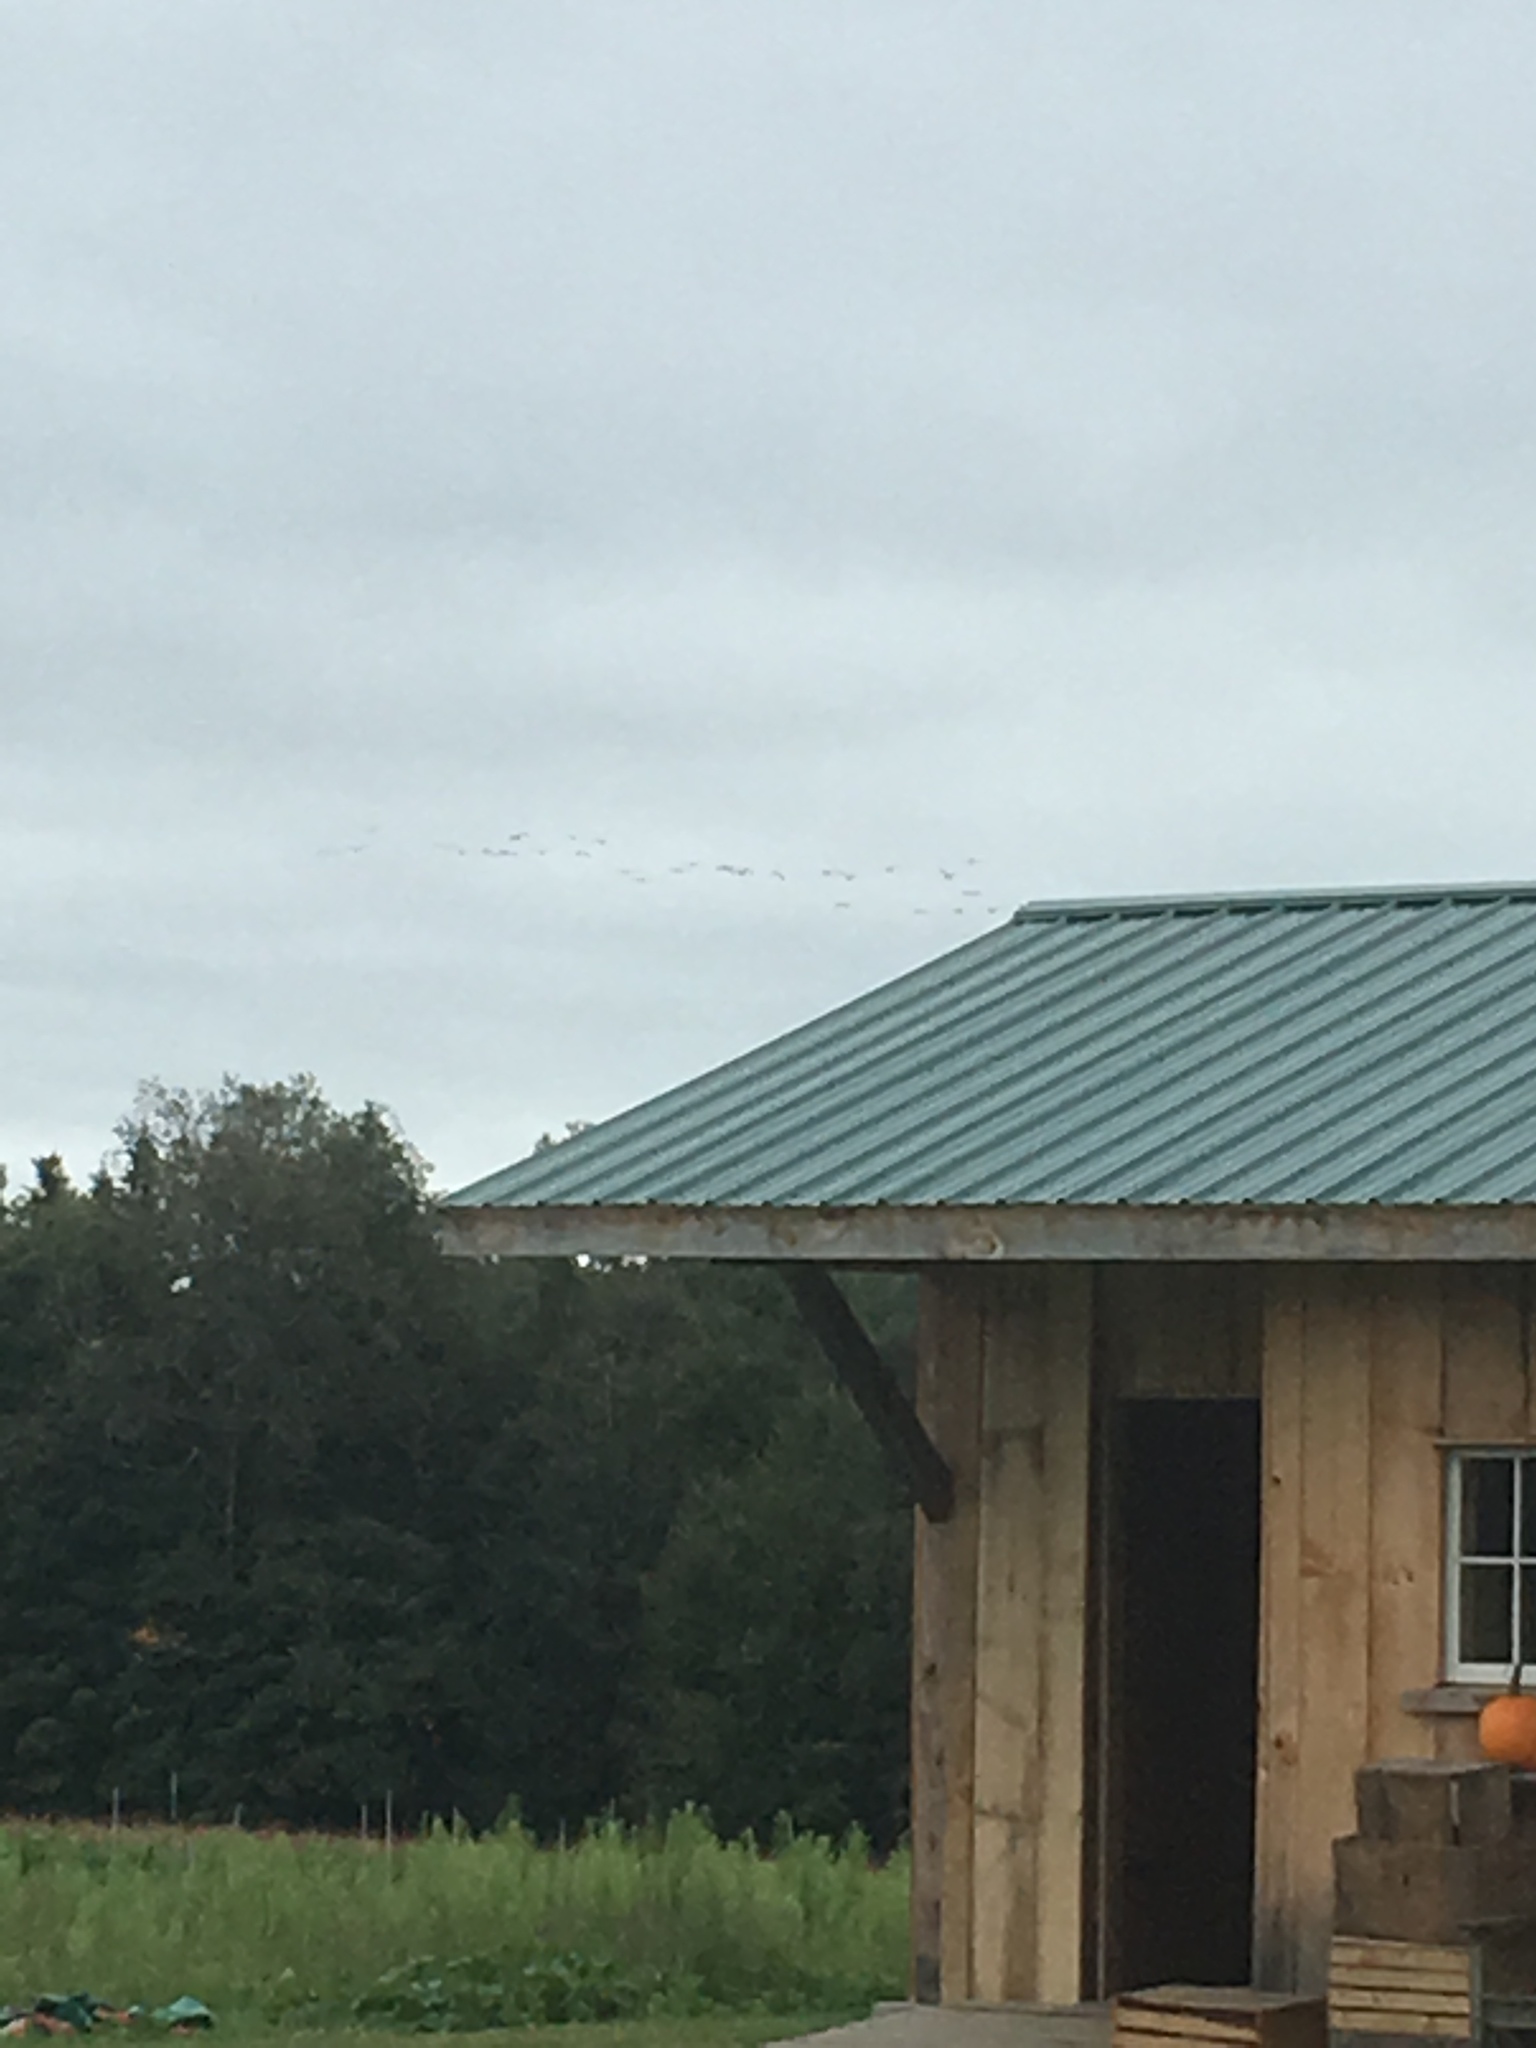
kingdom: Animalia
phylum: Chordata
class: Aves
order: Anseriformes
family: Anatidae
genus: Branta
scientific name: Branta canadensis
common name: Canada goose
